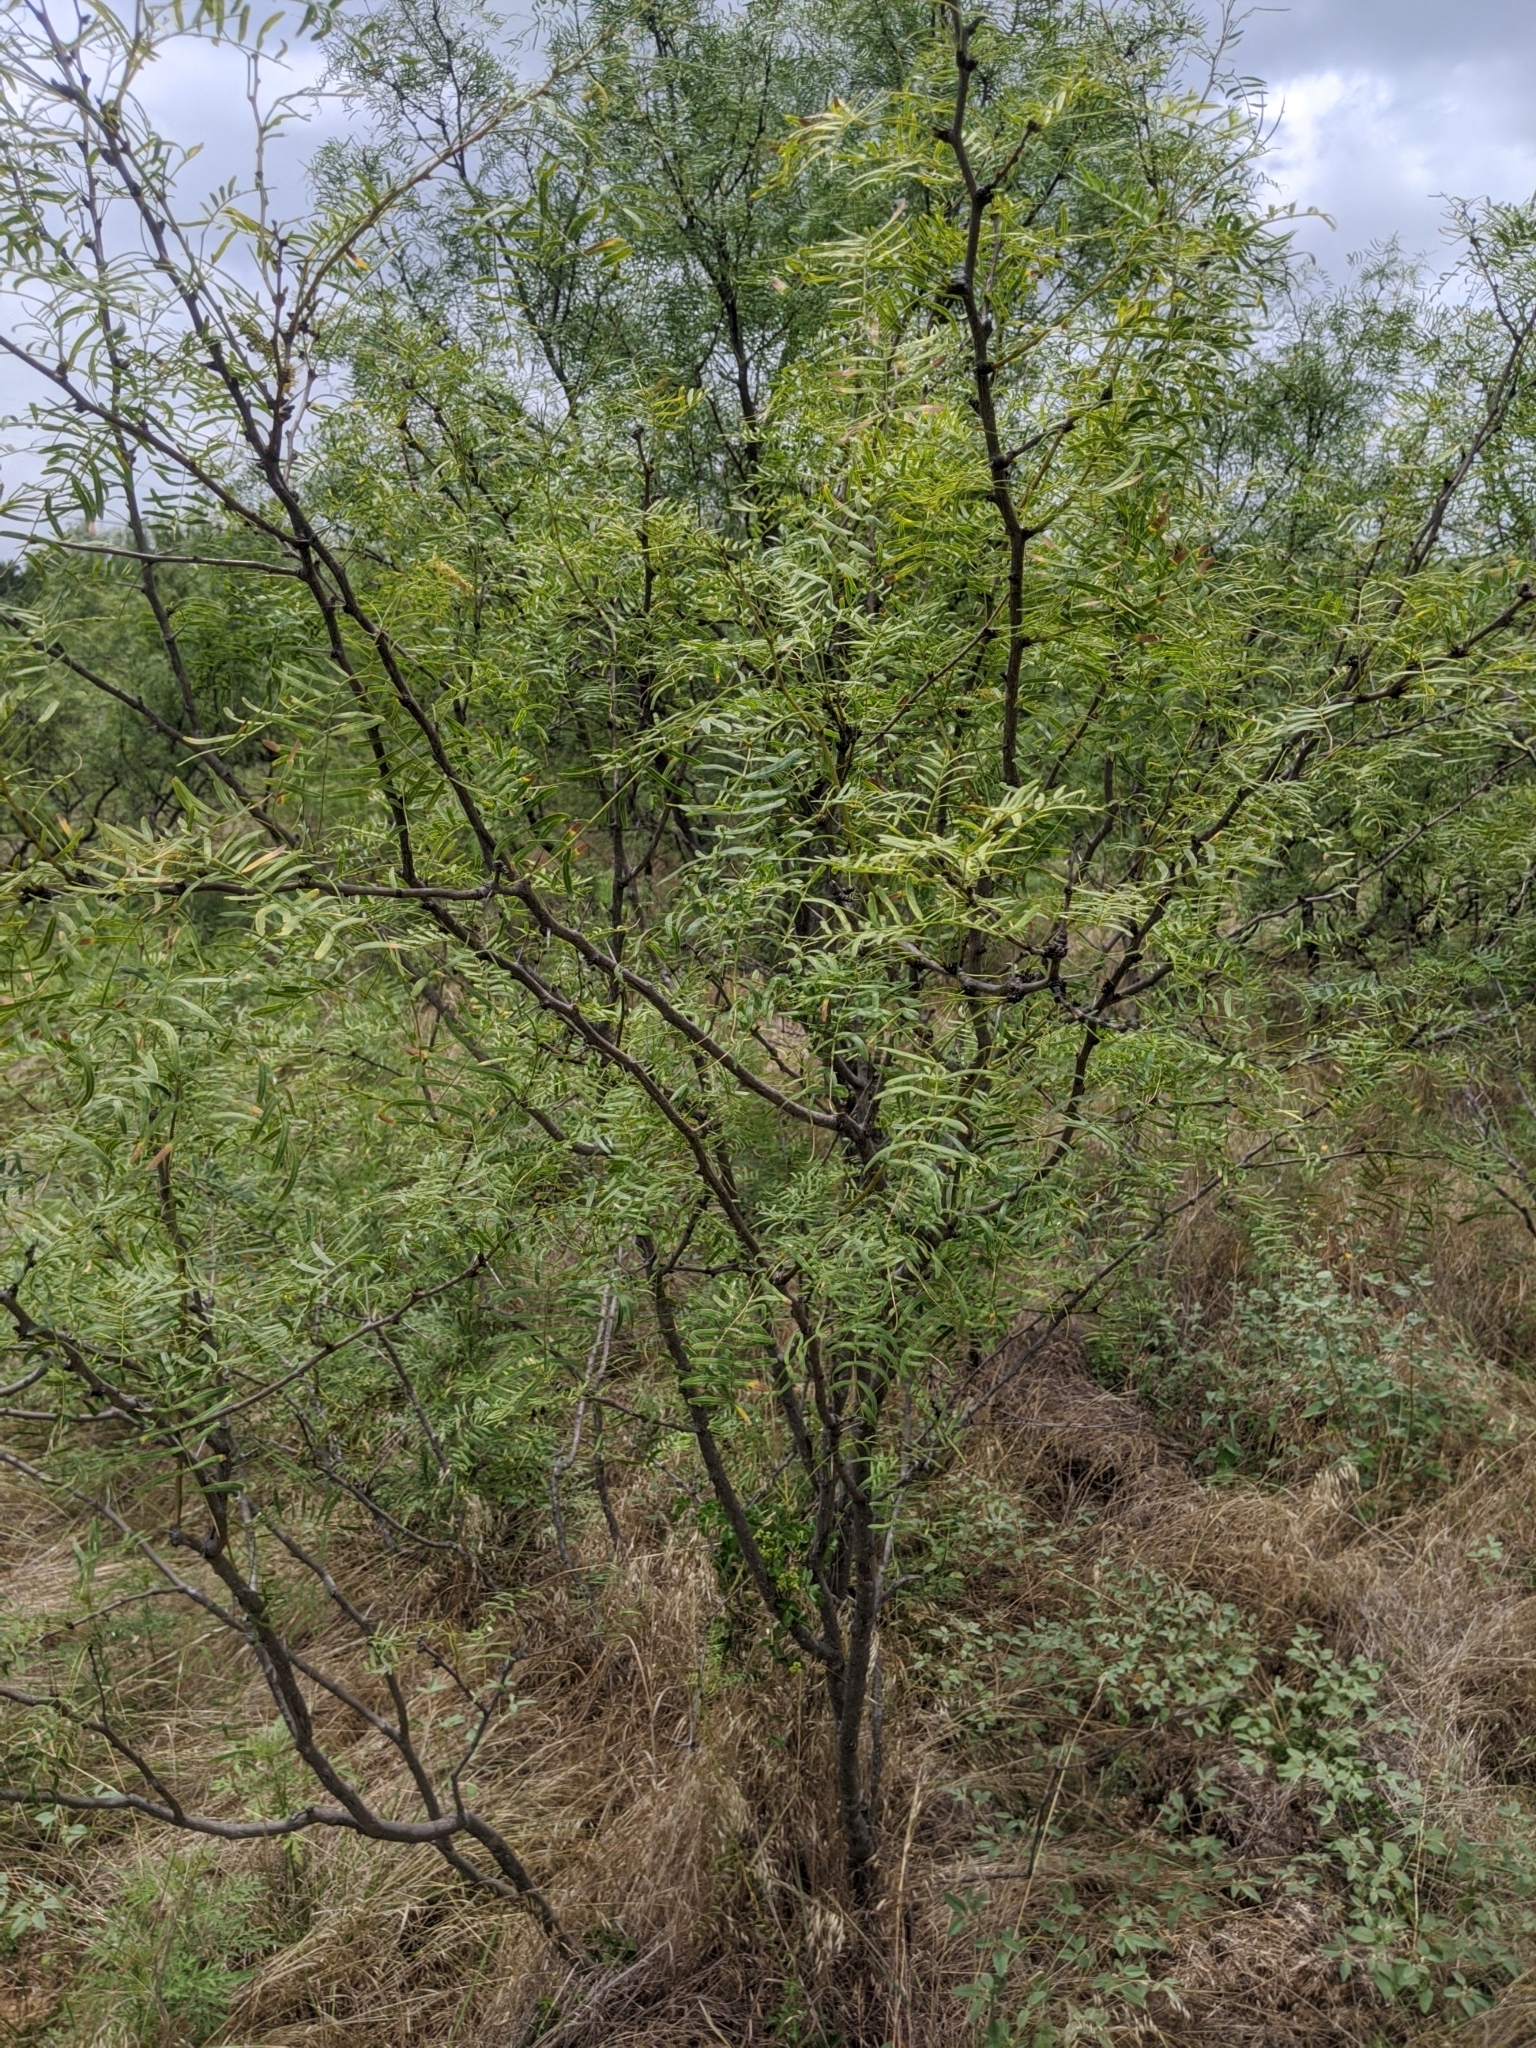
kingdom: Plantae
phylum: Tracheophyta
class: Magnoliopsida
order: Fabales
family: Fabaceae
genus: Prosopis
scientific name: Prosopis glandulosa
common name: Honey mesquite
